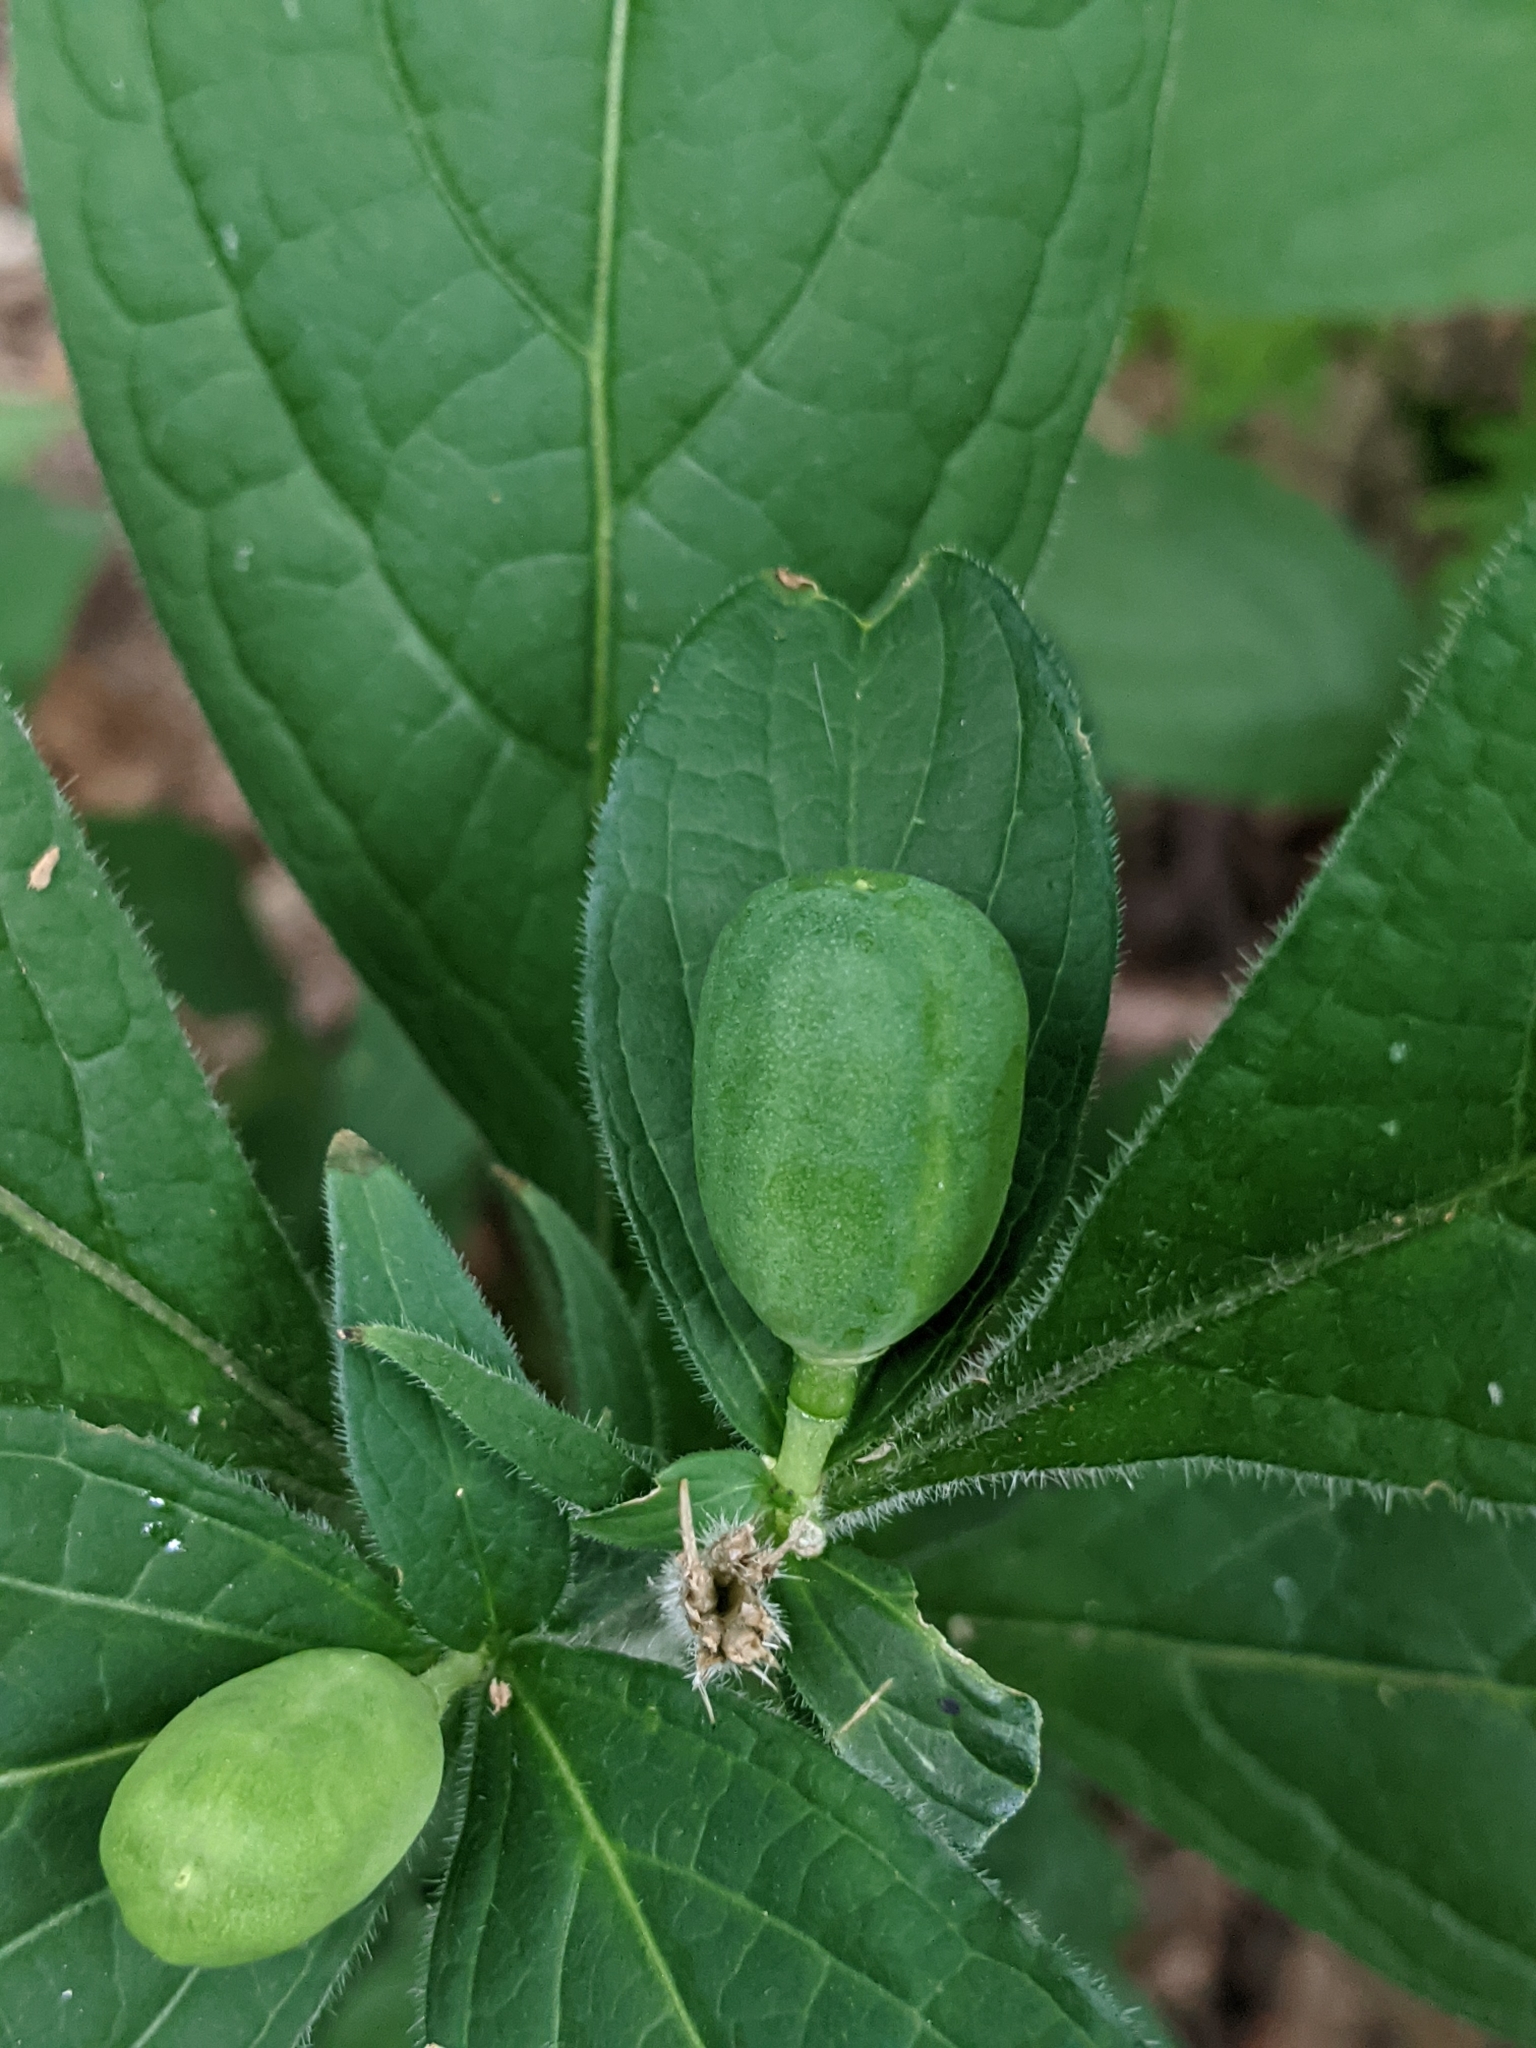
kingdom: Plantae
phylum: Tracheophyta
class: Magnoliopsida
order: Malpighiales
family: Violaceae
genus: Cubelium
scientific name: Cubelium concolor
